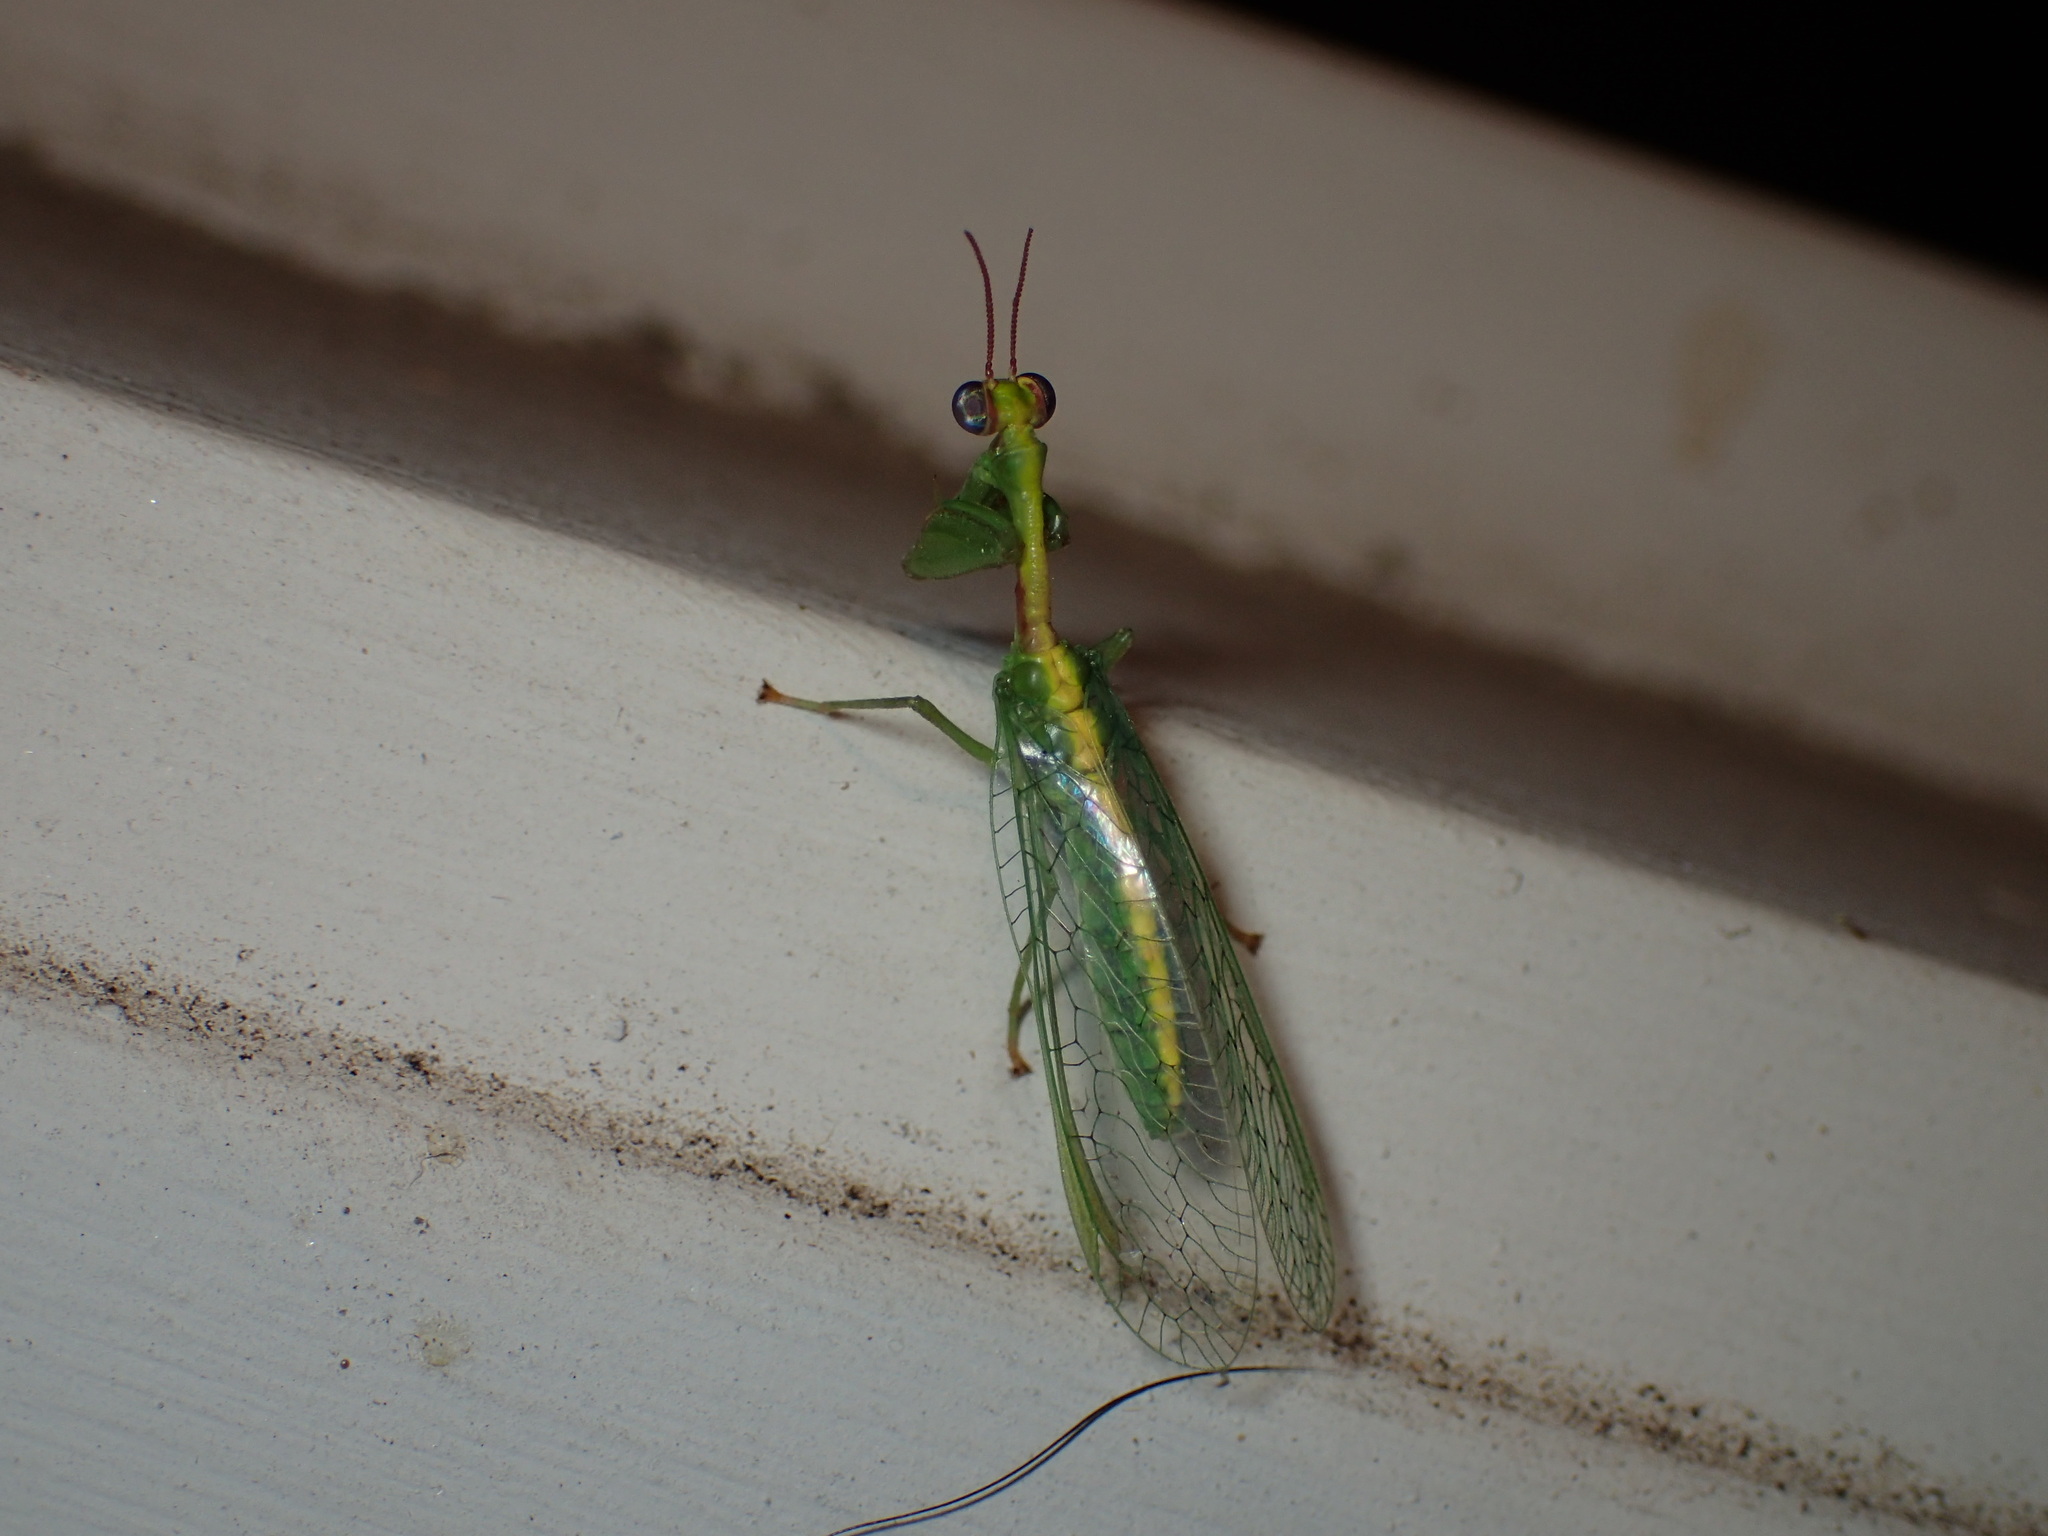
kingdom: Animalia
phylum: Arthropoda
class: Insecta
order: Neuroptera
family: Mantispidae
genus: Zeugomantispa
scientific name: Zeugomantispa minuta
